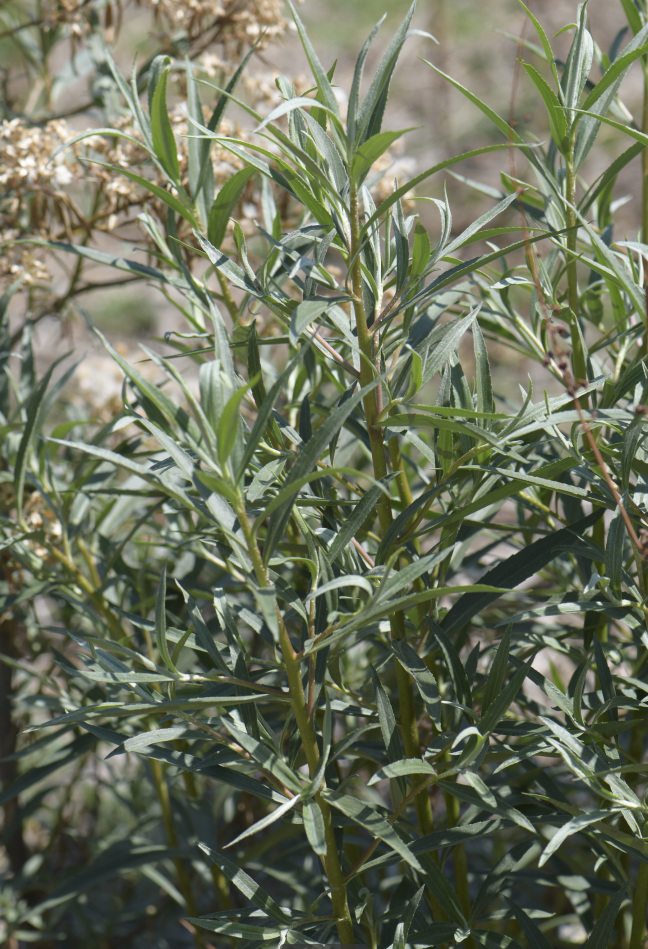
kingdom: Plantae
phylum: Tracheophyta
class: Magnoliopsida
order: Asterales
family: Asteraceae
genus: Barkleyanthus
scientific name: Barkleyanthus salicifolius
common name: Willow ragwort
